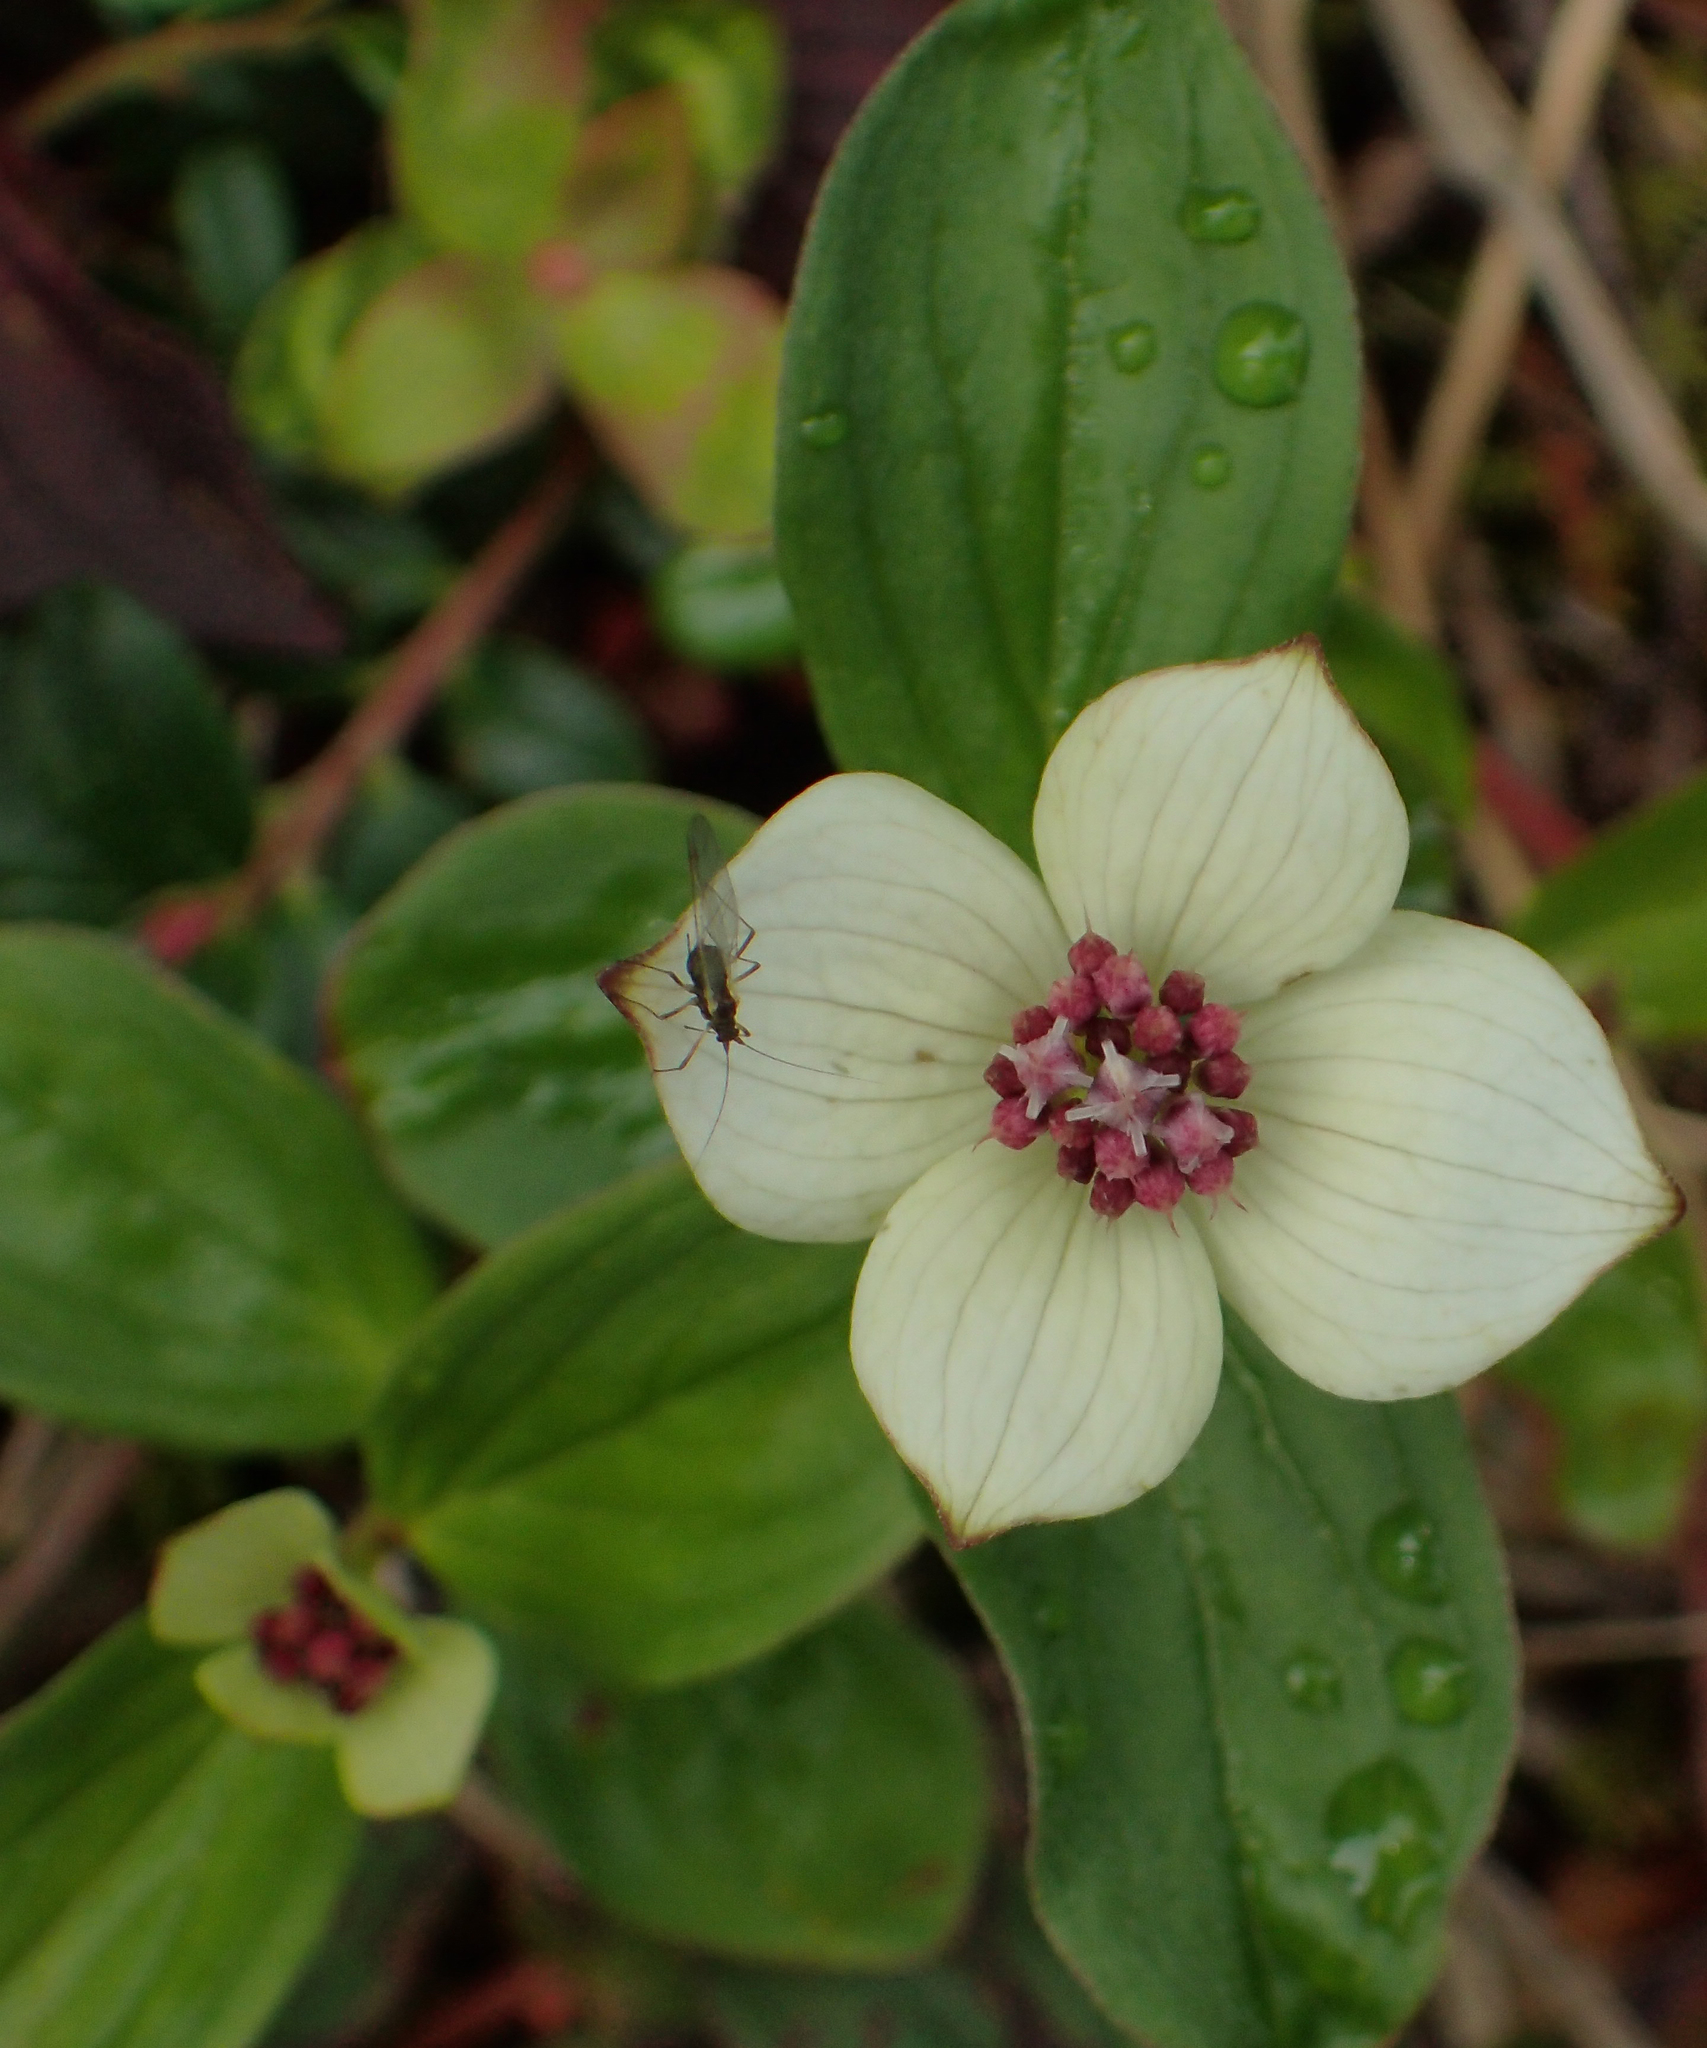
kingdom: Plantae
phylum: Tracheophyta
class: Magnoliopsida
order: Cornales
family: Cornaceae
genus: Cornus
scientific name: Cornus unalaschkensis
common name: Alaska bunchberry
